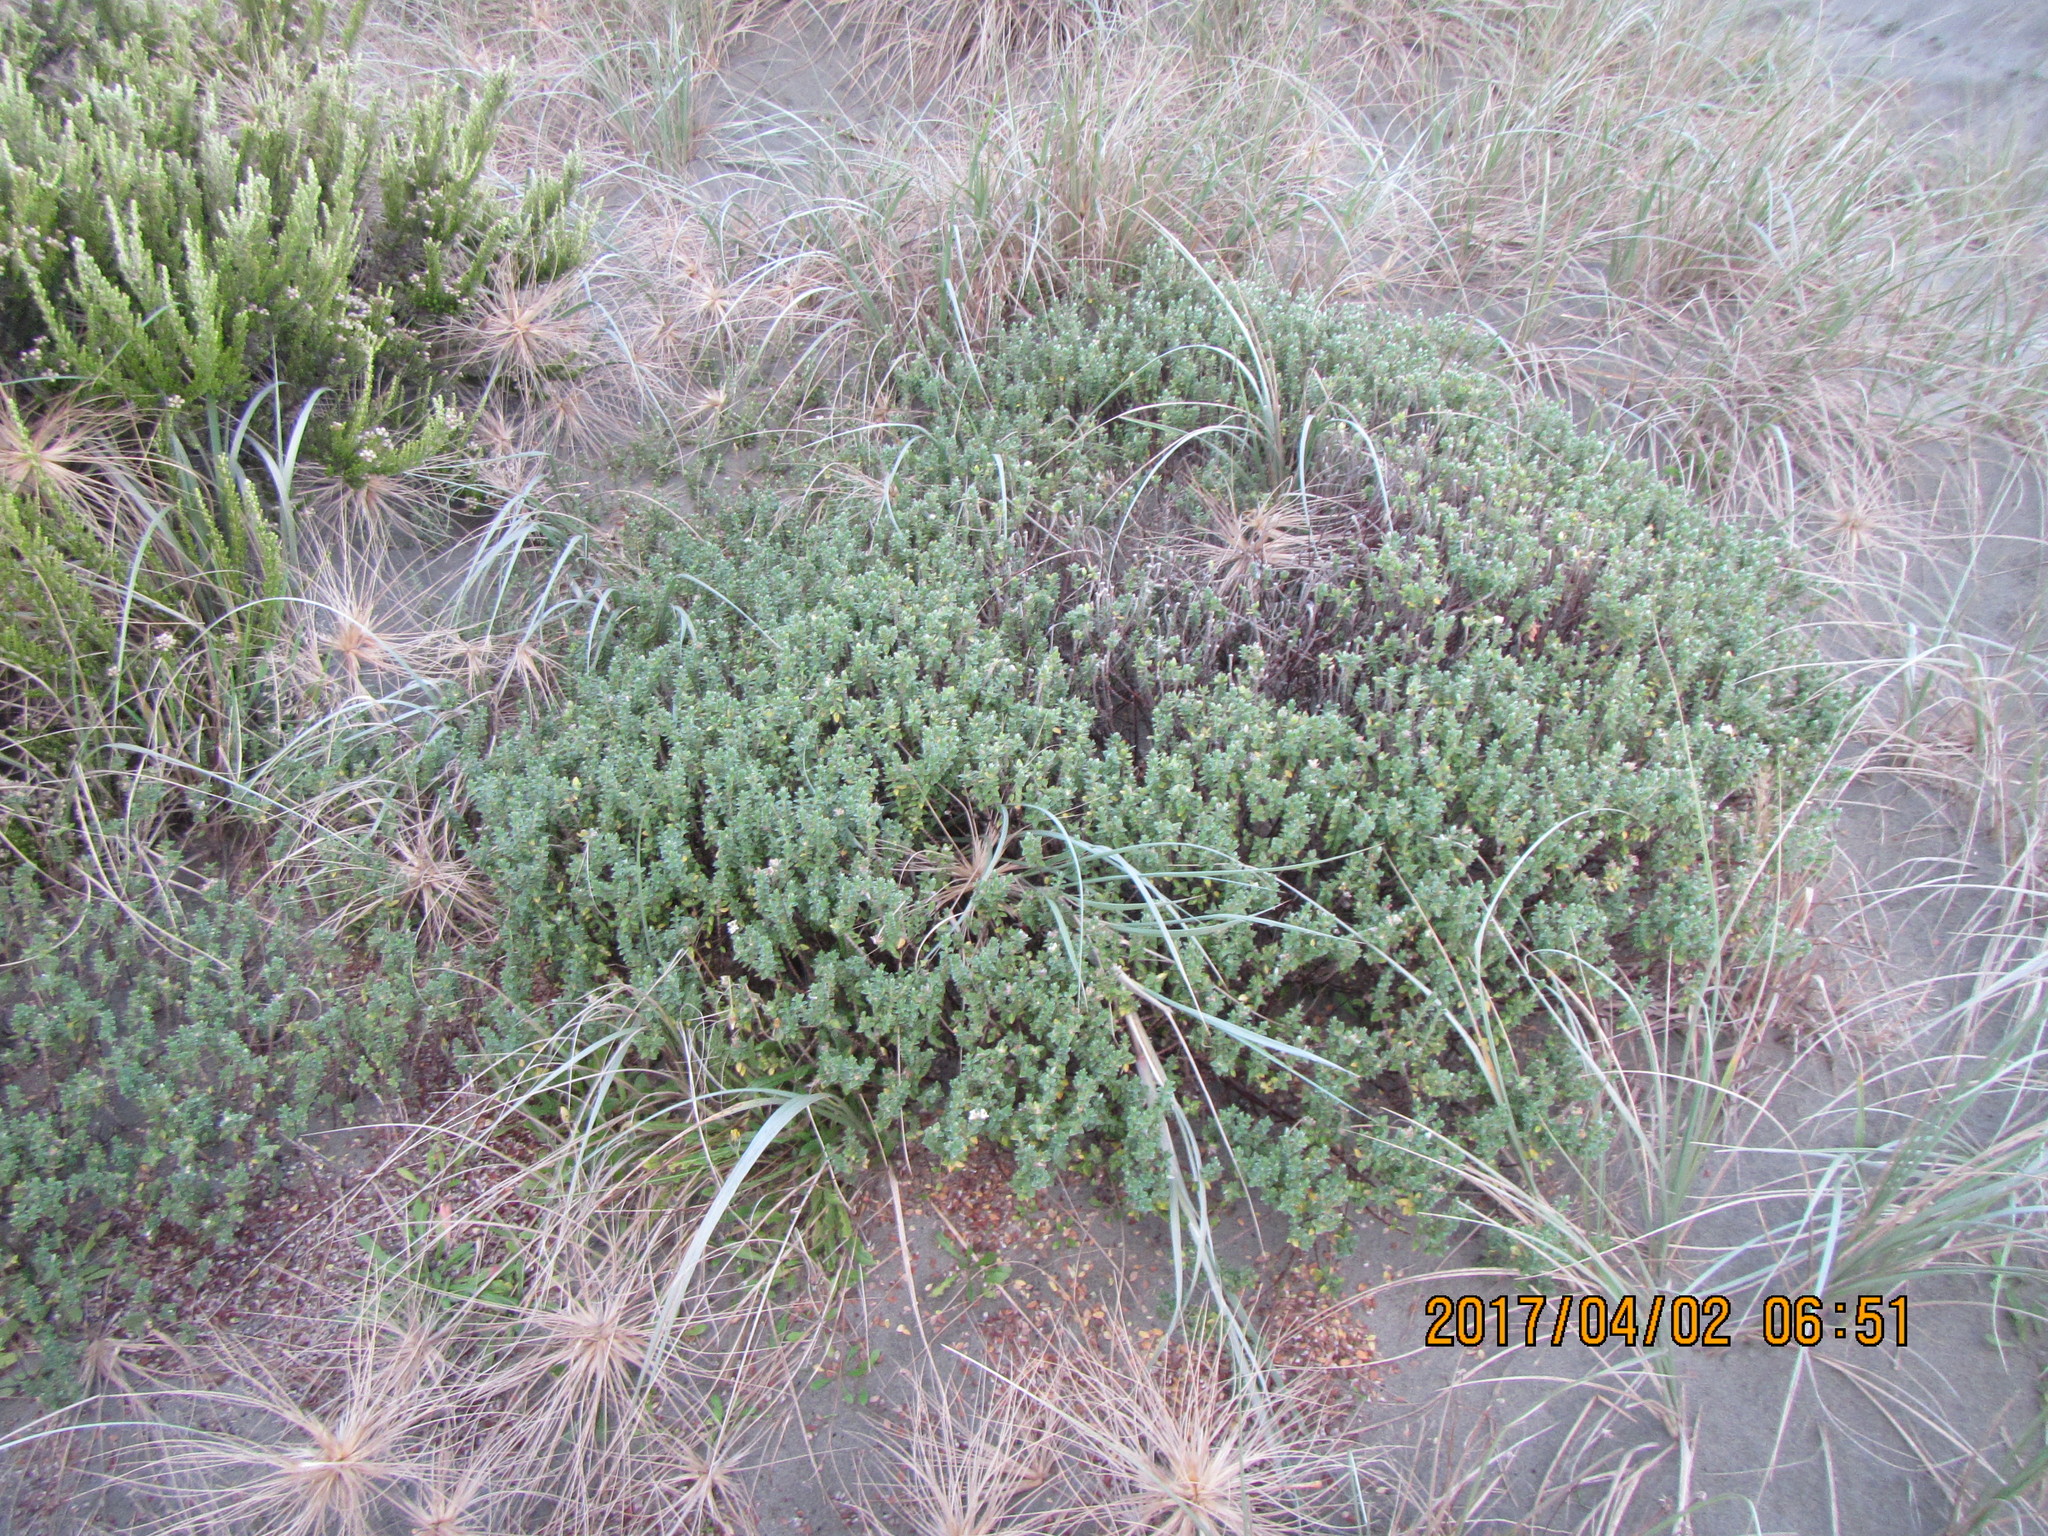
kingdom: Plantae
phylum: Tracheophyta
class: Magnoliopsida
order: Malvales
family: Thymelaeaceae
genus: Pimelea
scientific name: Pimelea villosa
